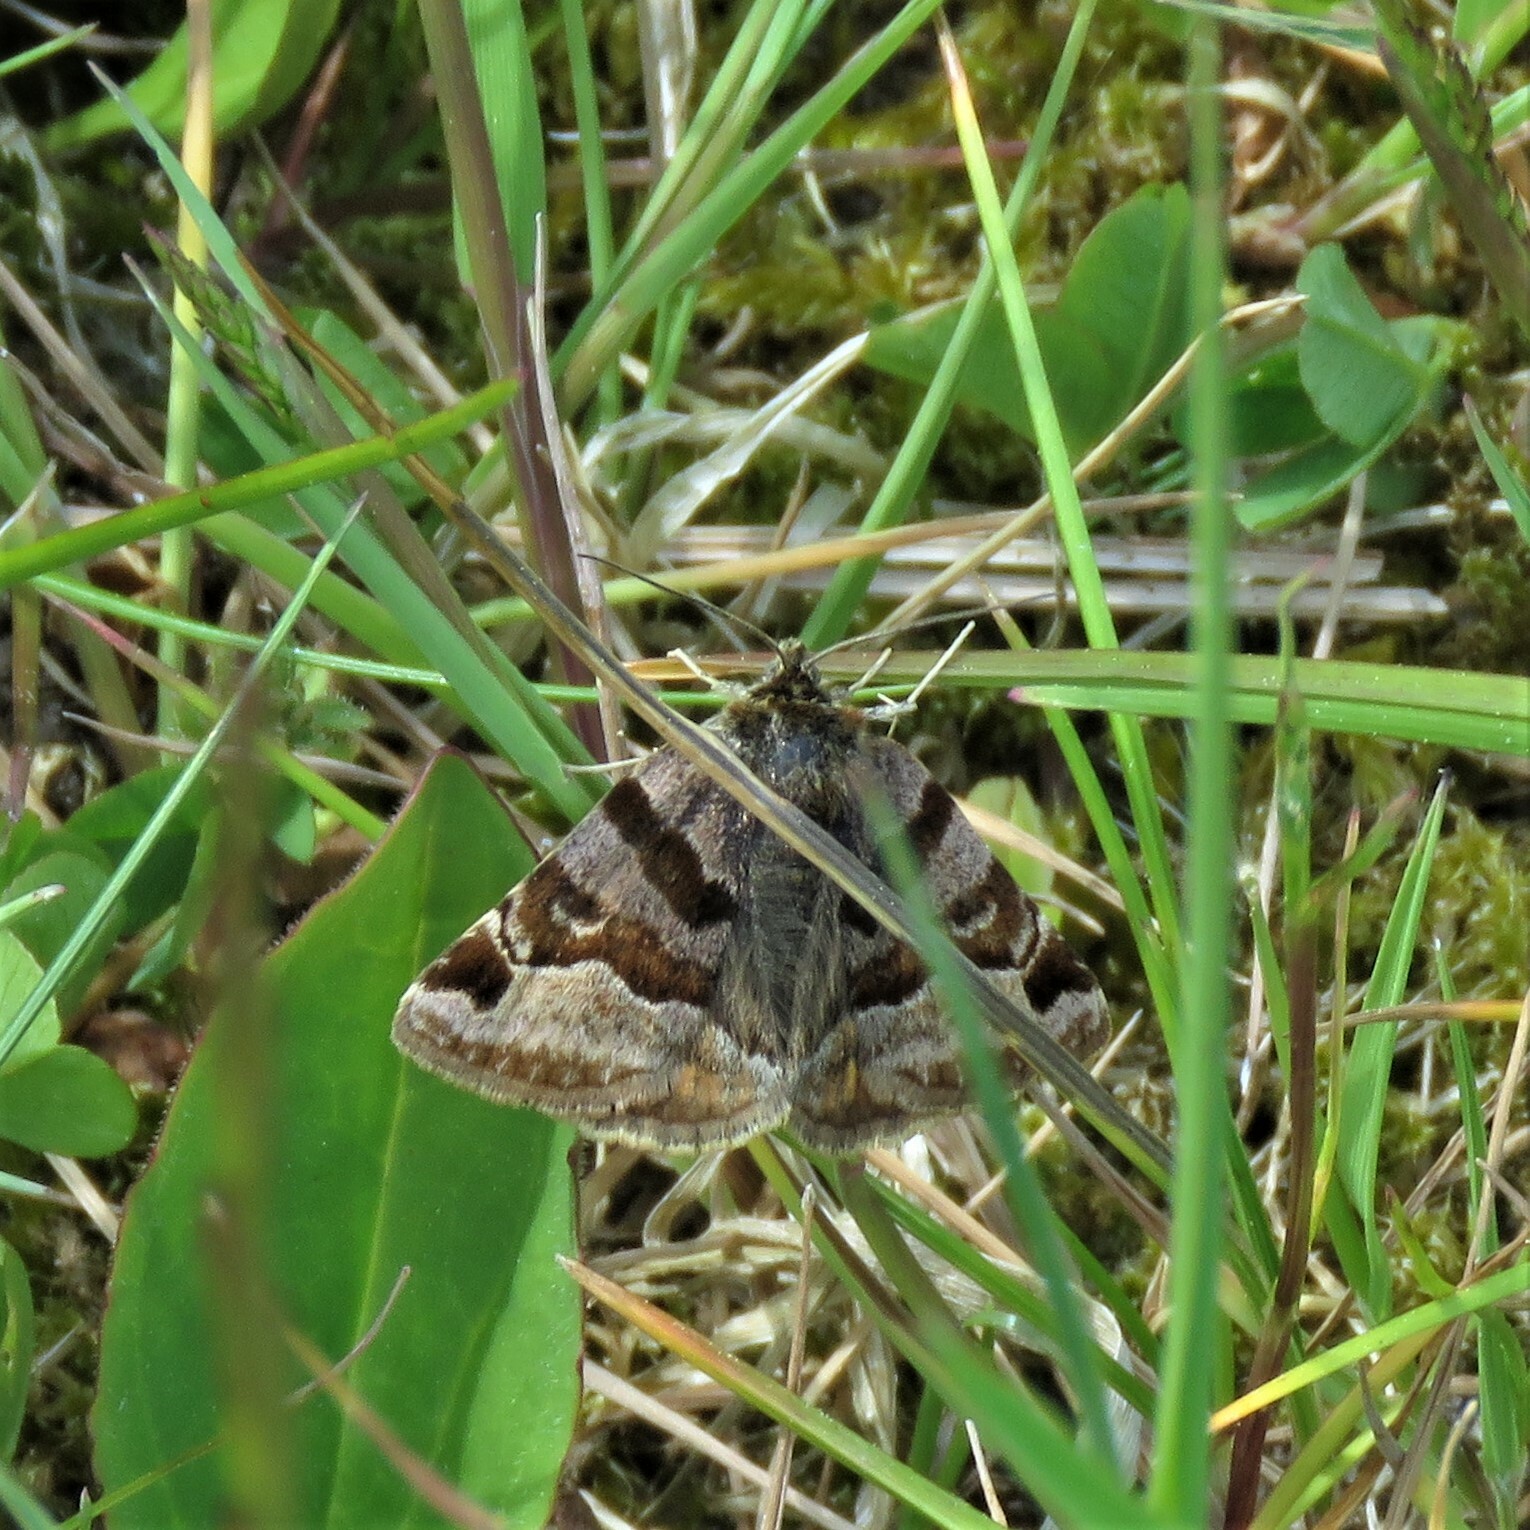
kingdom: Animalia
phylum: Arthropoda
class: Insecta
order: Lepidoptera
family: Erebidae
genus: Euclidia
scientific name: Euclidia glyphica
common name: Burnet companion
